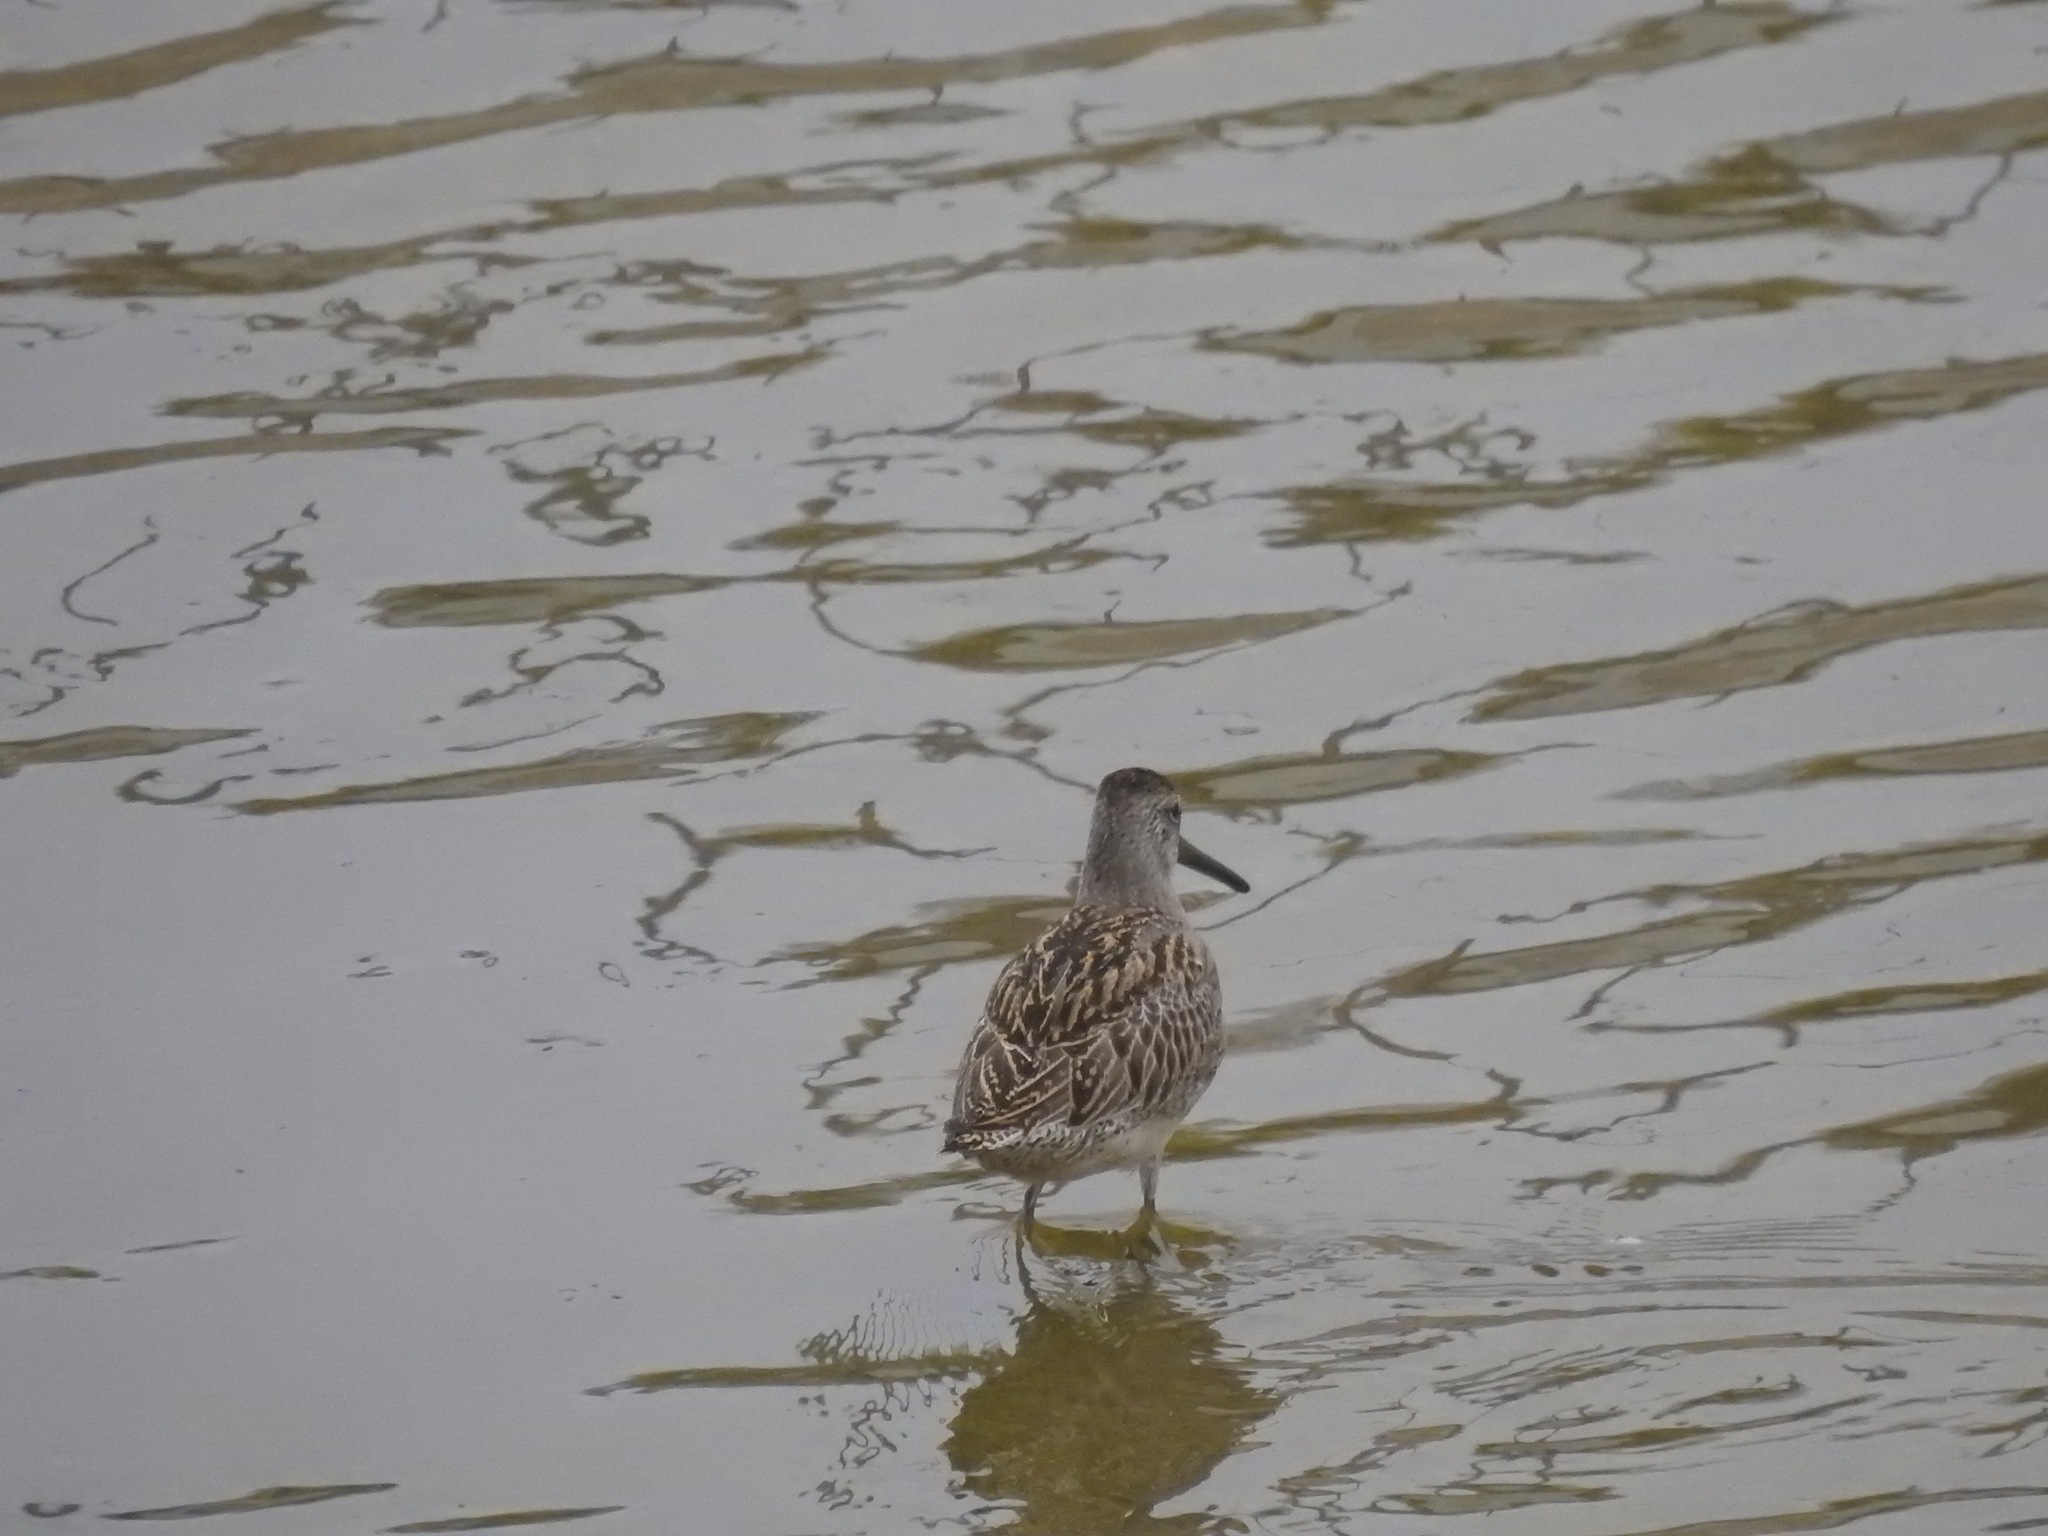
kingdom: Animalia
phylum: Chordata
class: Aves
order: Charadriiformes
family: Scolopacidae
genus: Limnodromus
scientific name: Limnodromus griseus
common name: Short-billed dowitcher
